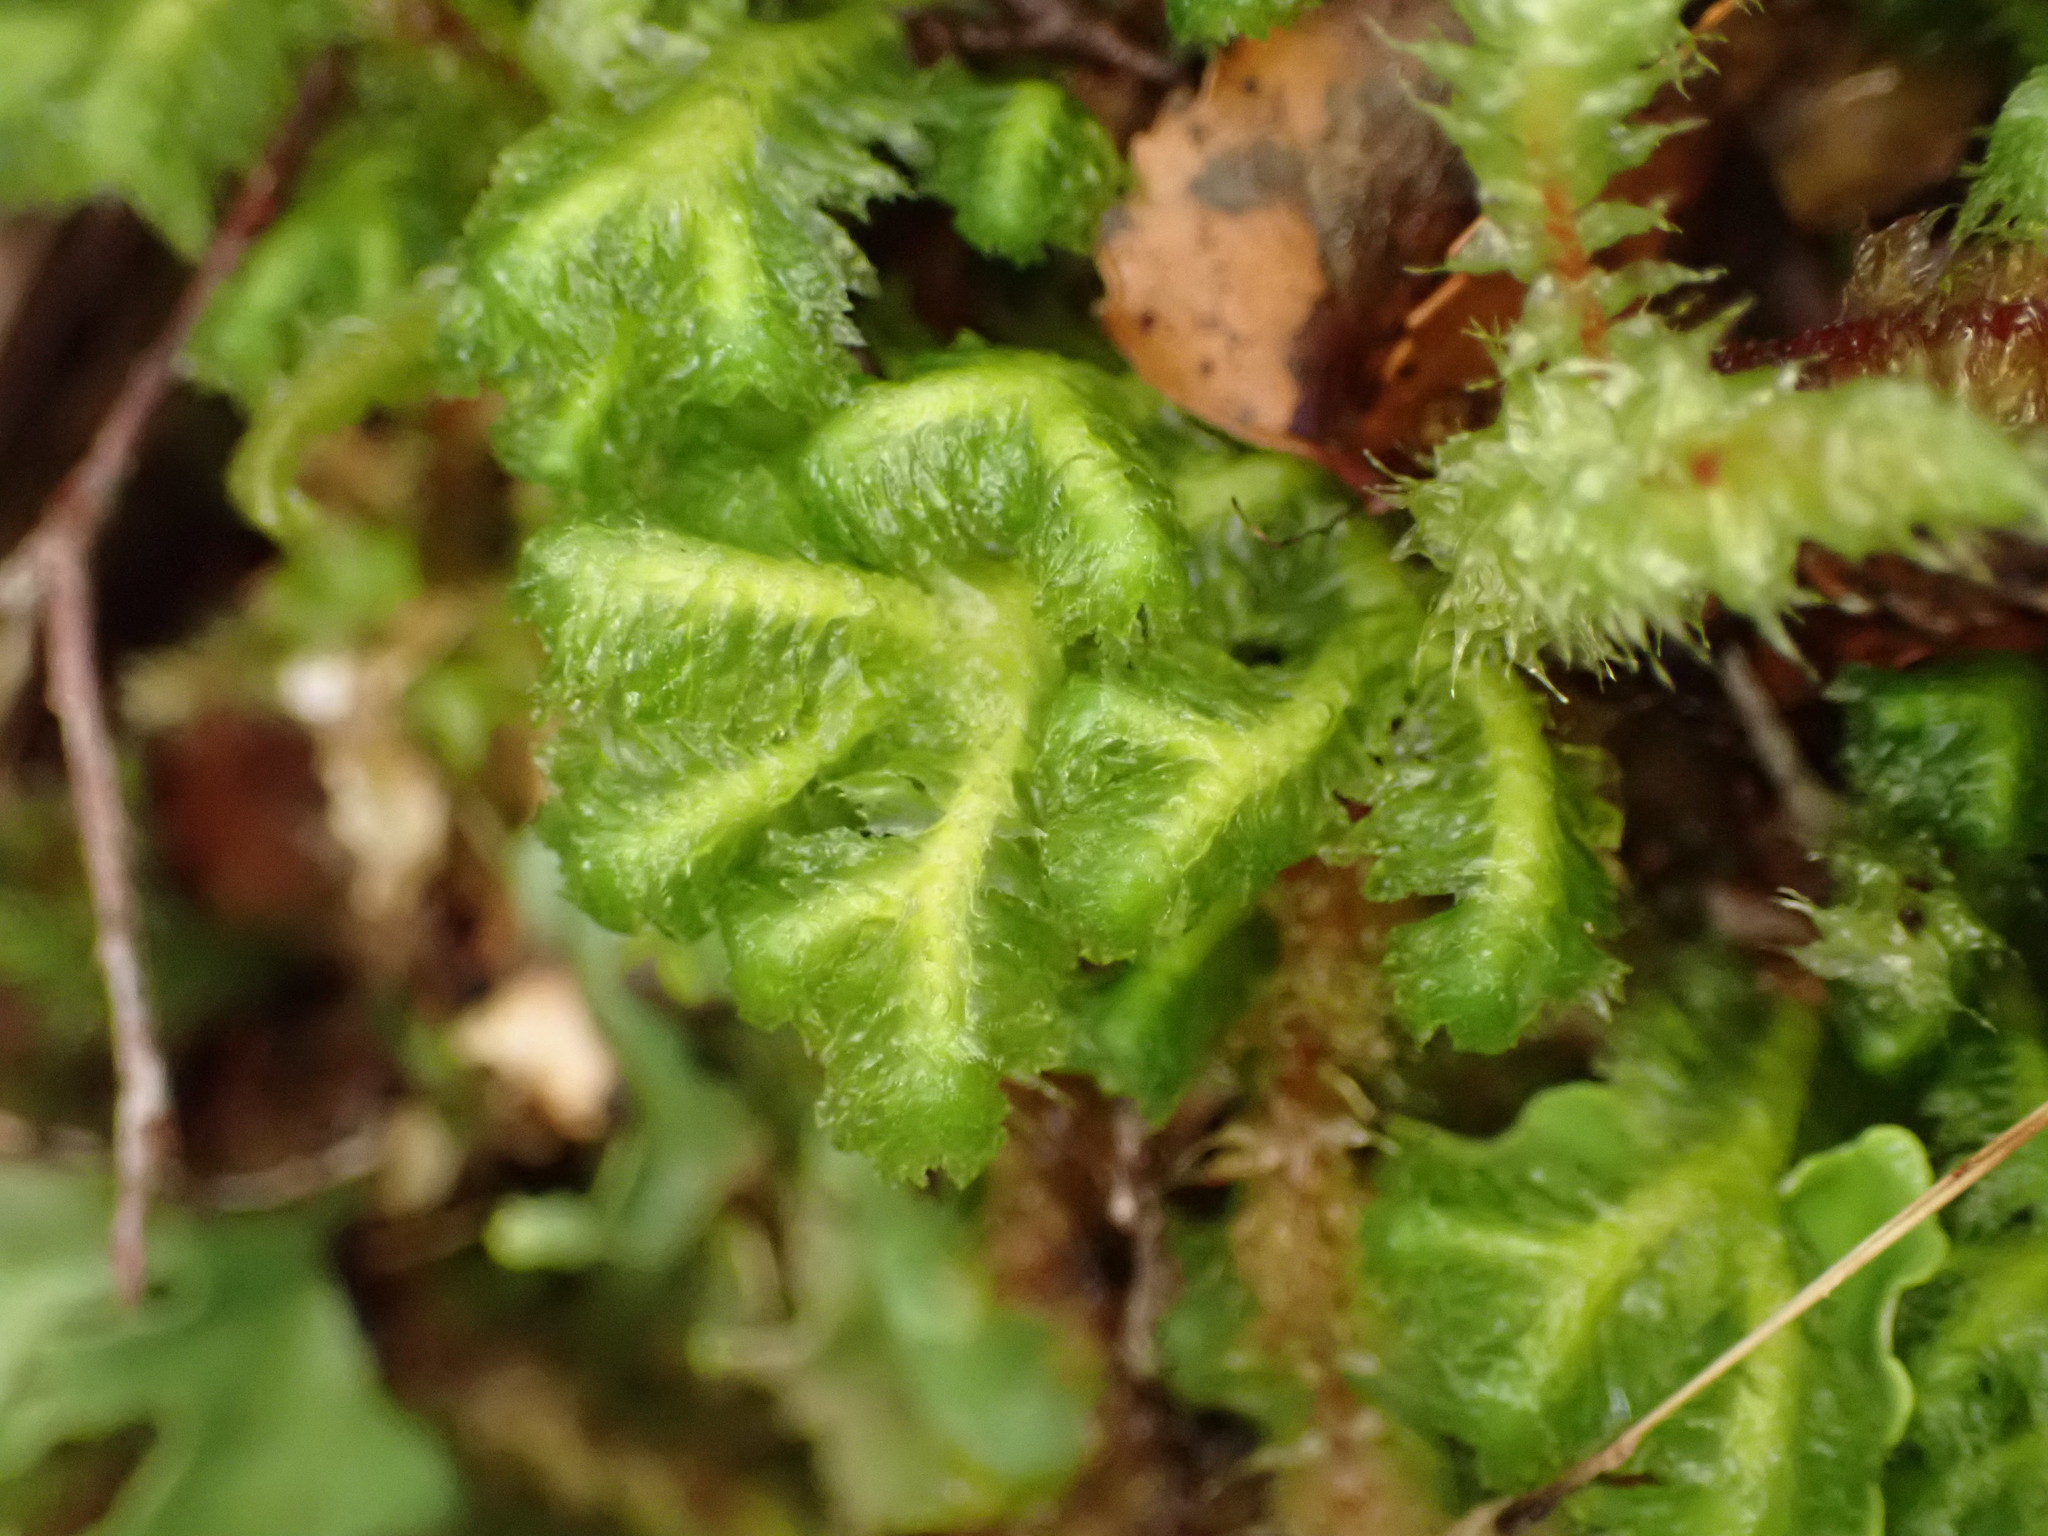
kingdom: Plantae
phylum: Marchantiophyta
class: Jungermanniopsida
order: Jungermanniales
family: Schistochilaceae
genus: Schistochila
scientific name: Schistochila pinnatifolia
